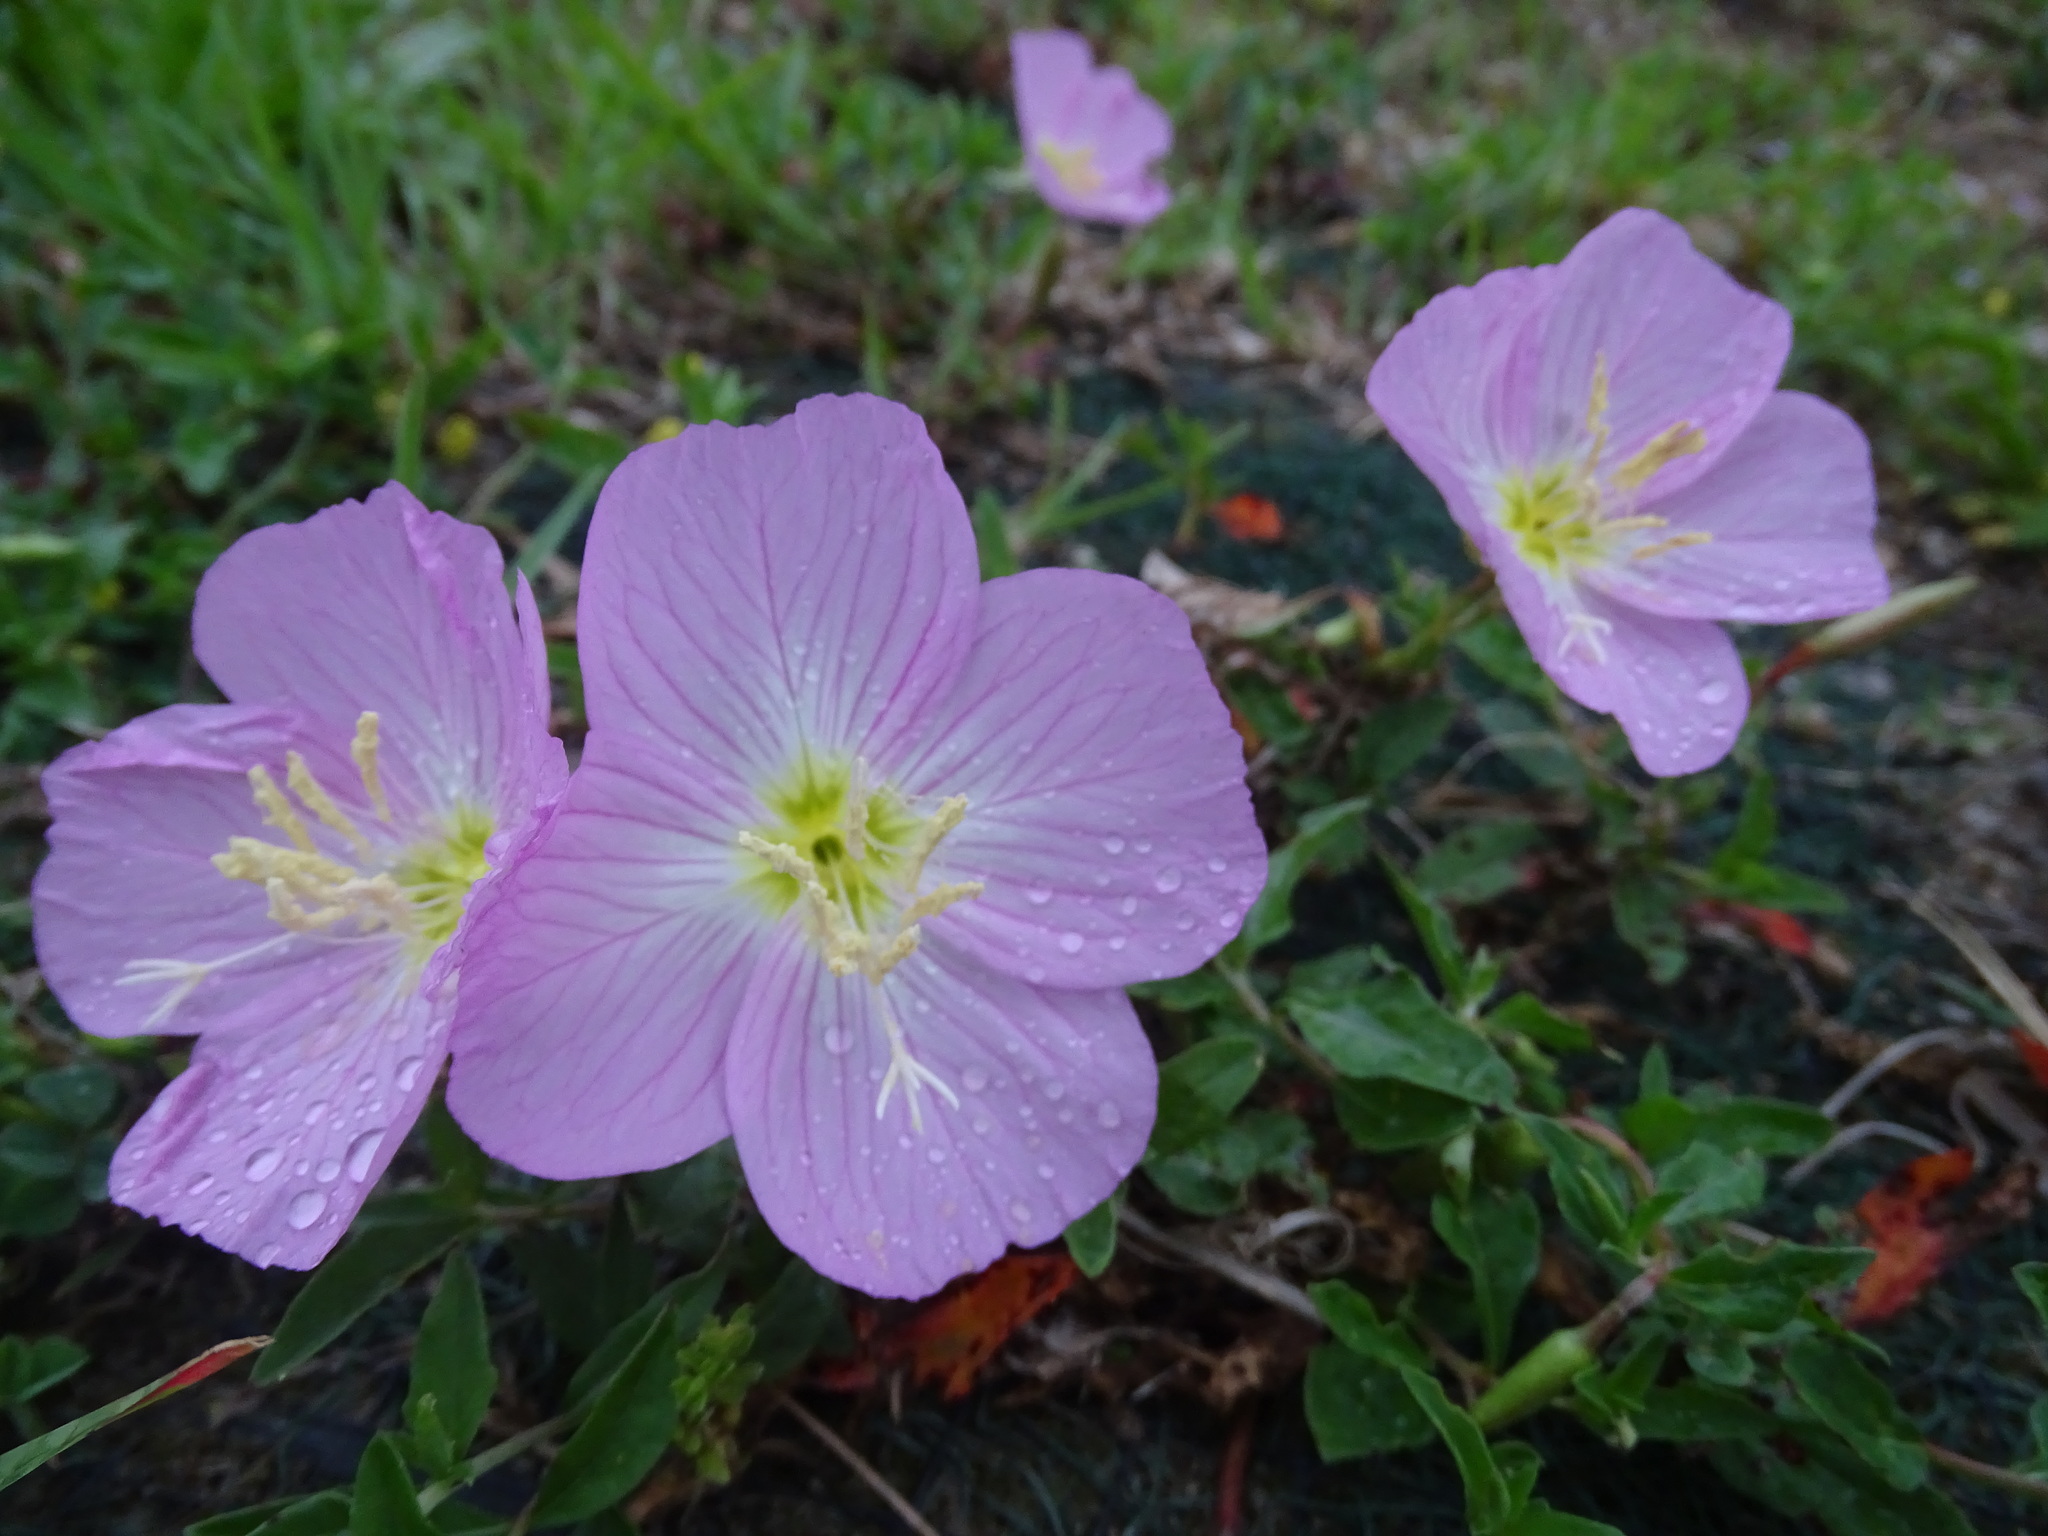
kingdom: Plantae
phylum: Tracheophyta
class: Magnoliopsida
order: Myrtales
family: Onagraceae
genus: Oenothera
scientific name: Oenothera speciosa
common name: White evening-primrose
